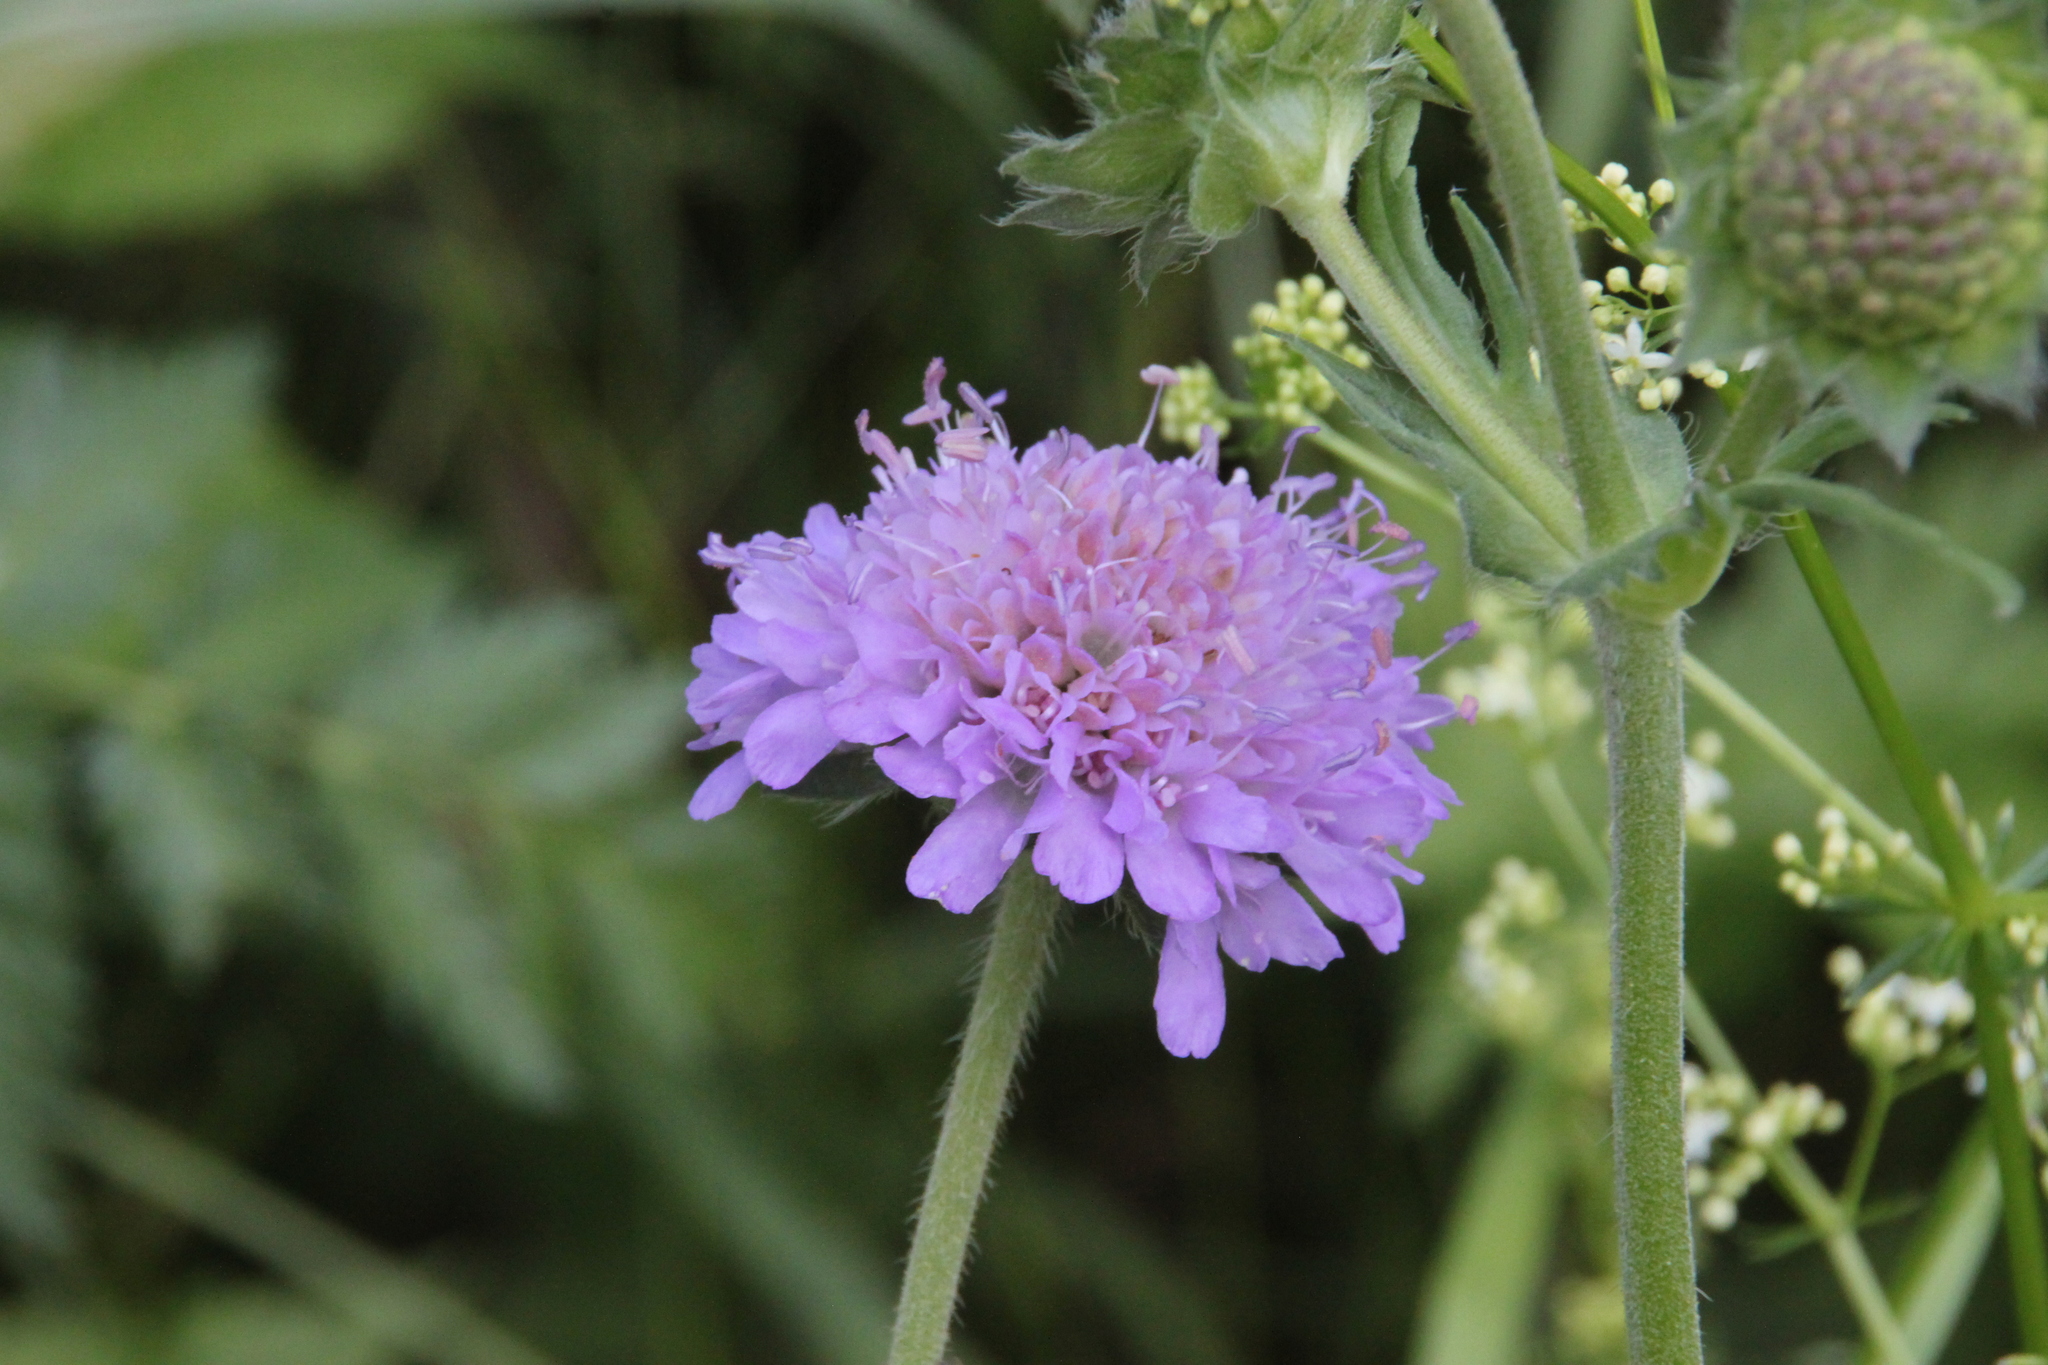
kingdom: Plantae
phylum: Tracheophyta
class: Magnoliopsida
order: Dipsacales
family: Caprifoliaceae
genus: Knautia
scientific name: Knautia arvensis
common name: Field scabiosa
